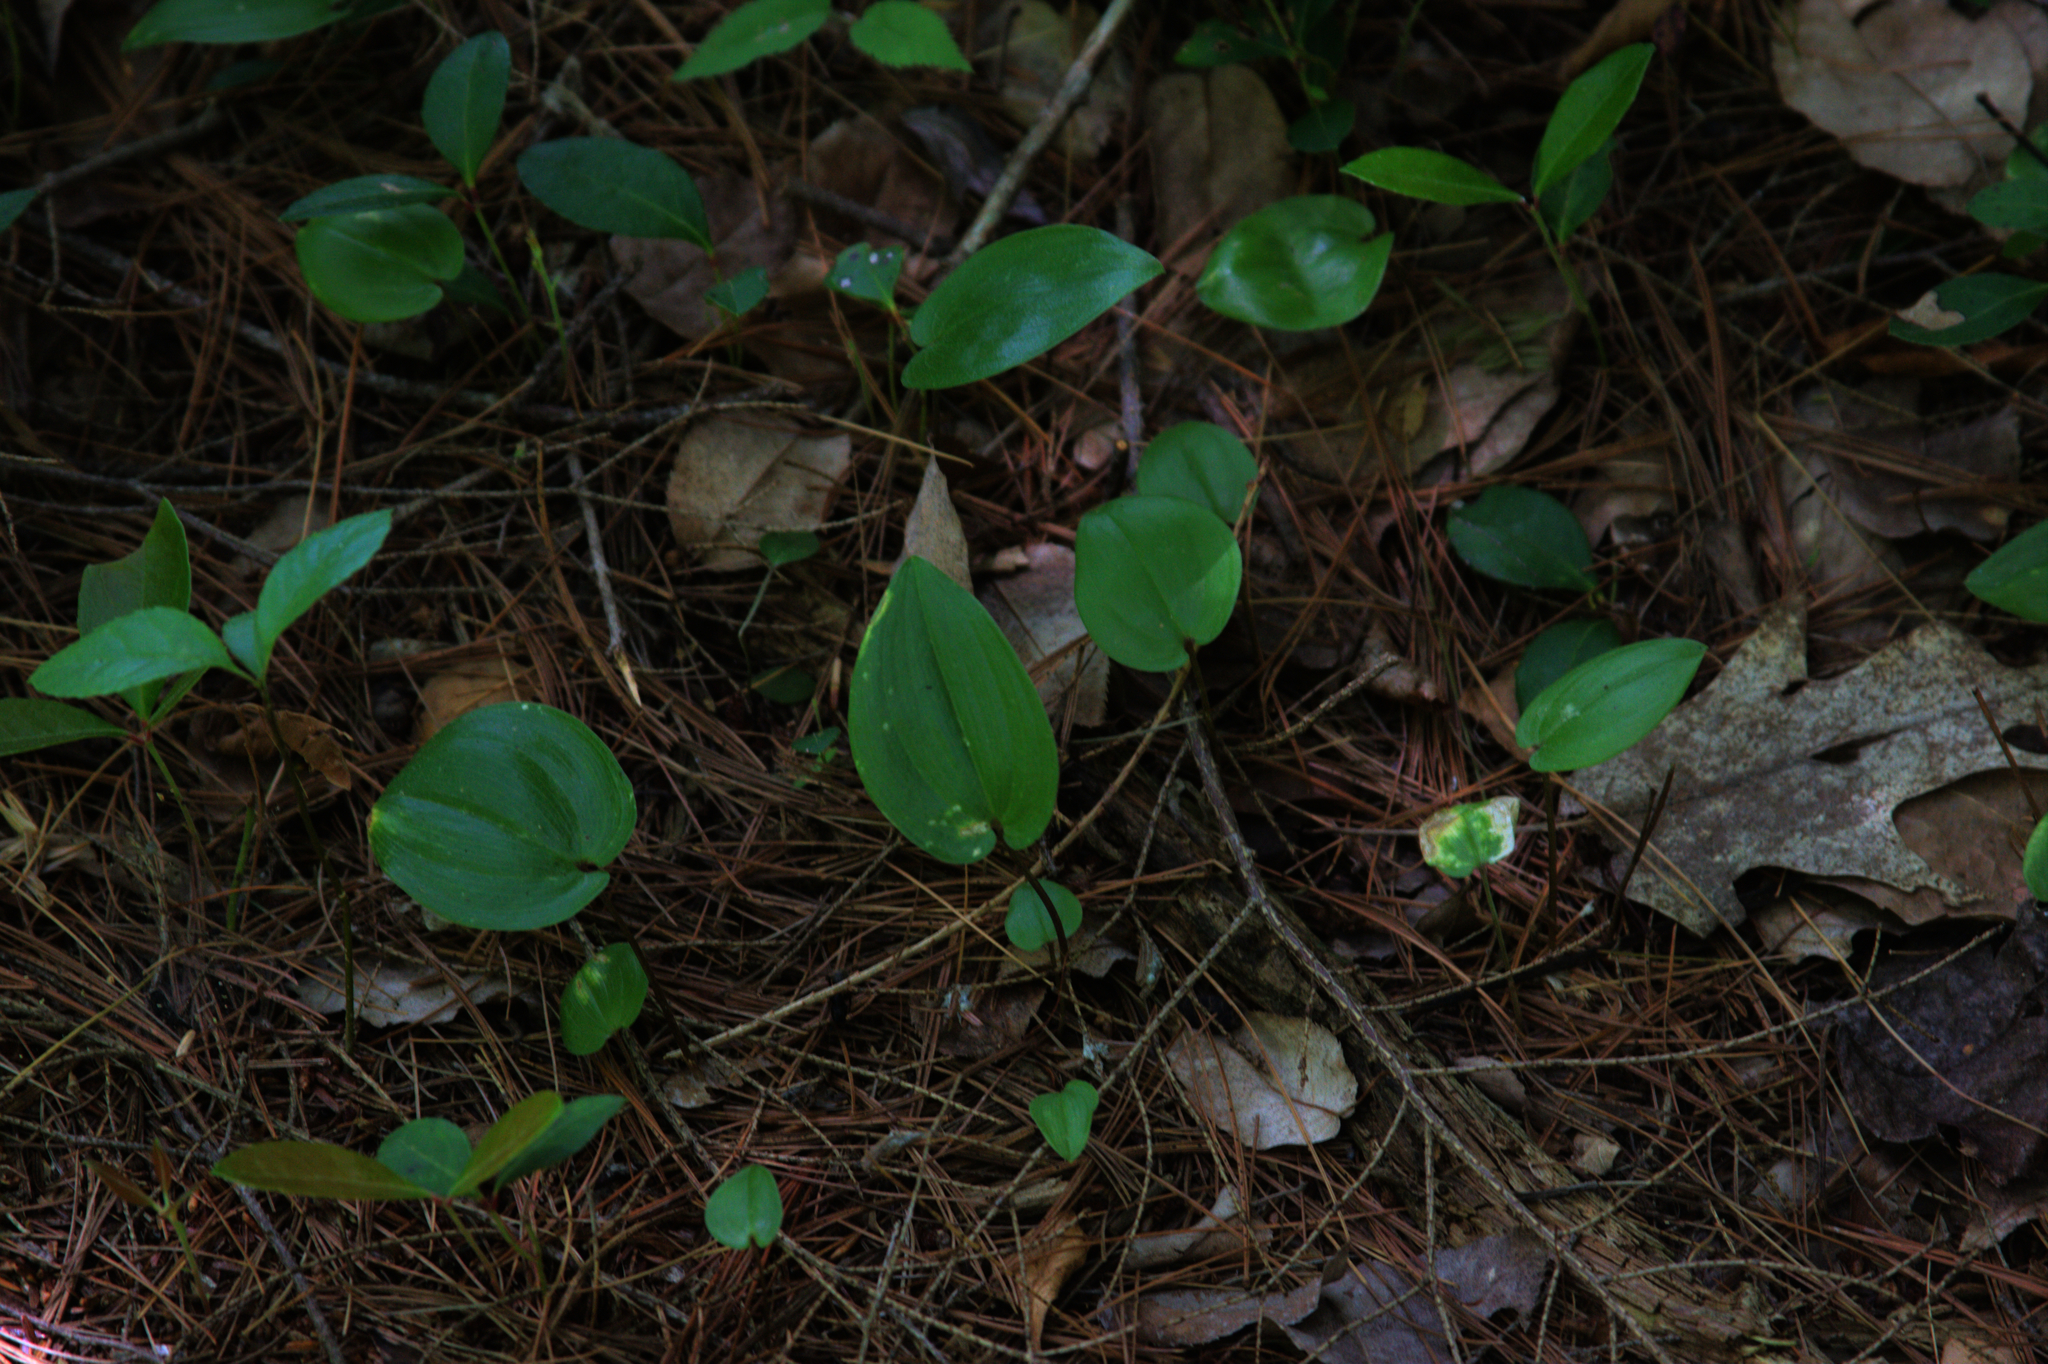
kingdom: Plantae
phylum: Tracheophyta
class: Liliopsida
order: Asparagales
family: Asparagaceae
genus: Maianthemum
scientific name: Maianthemum canadense
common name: False lily-of-the-valley
